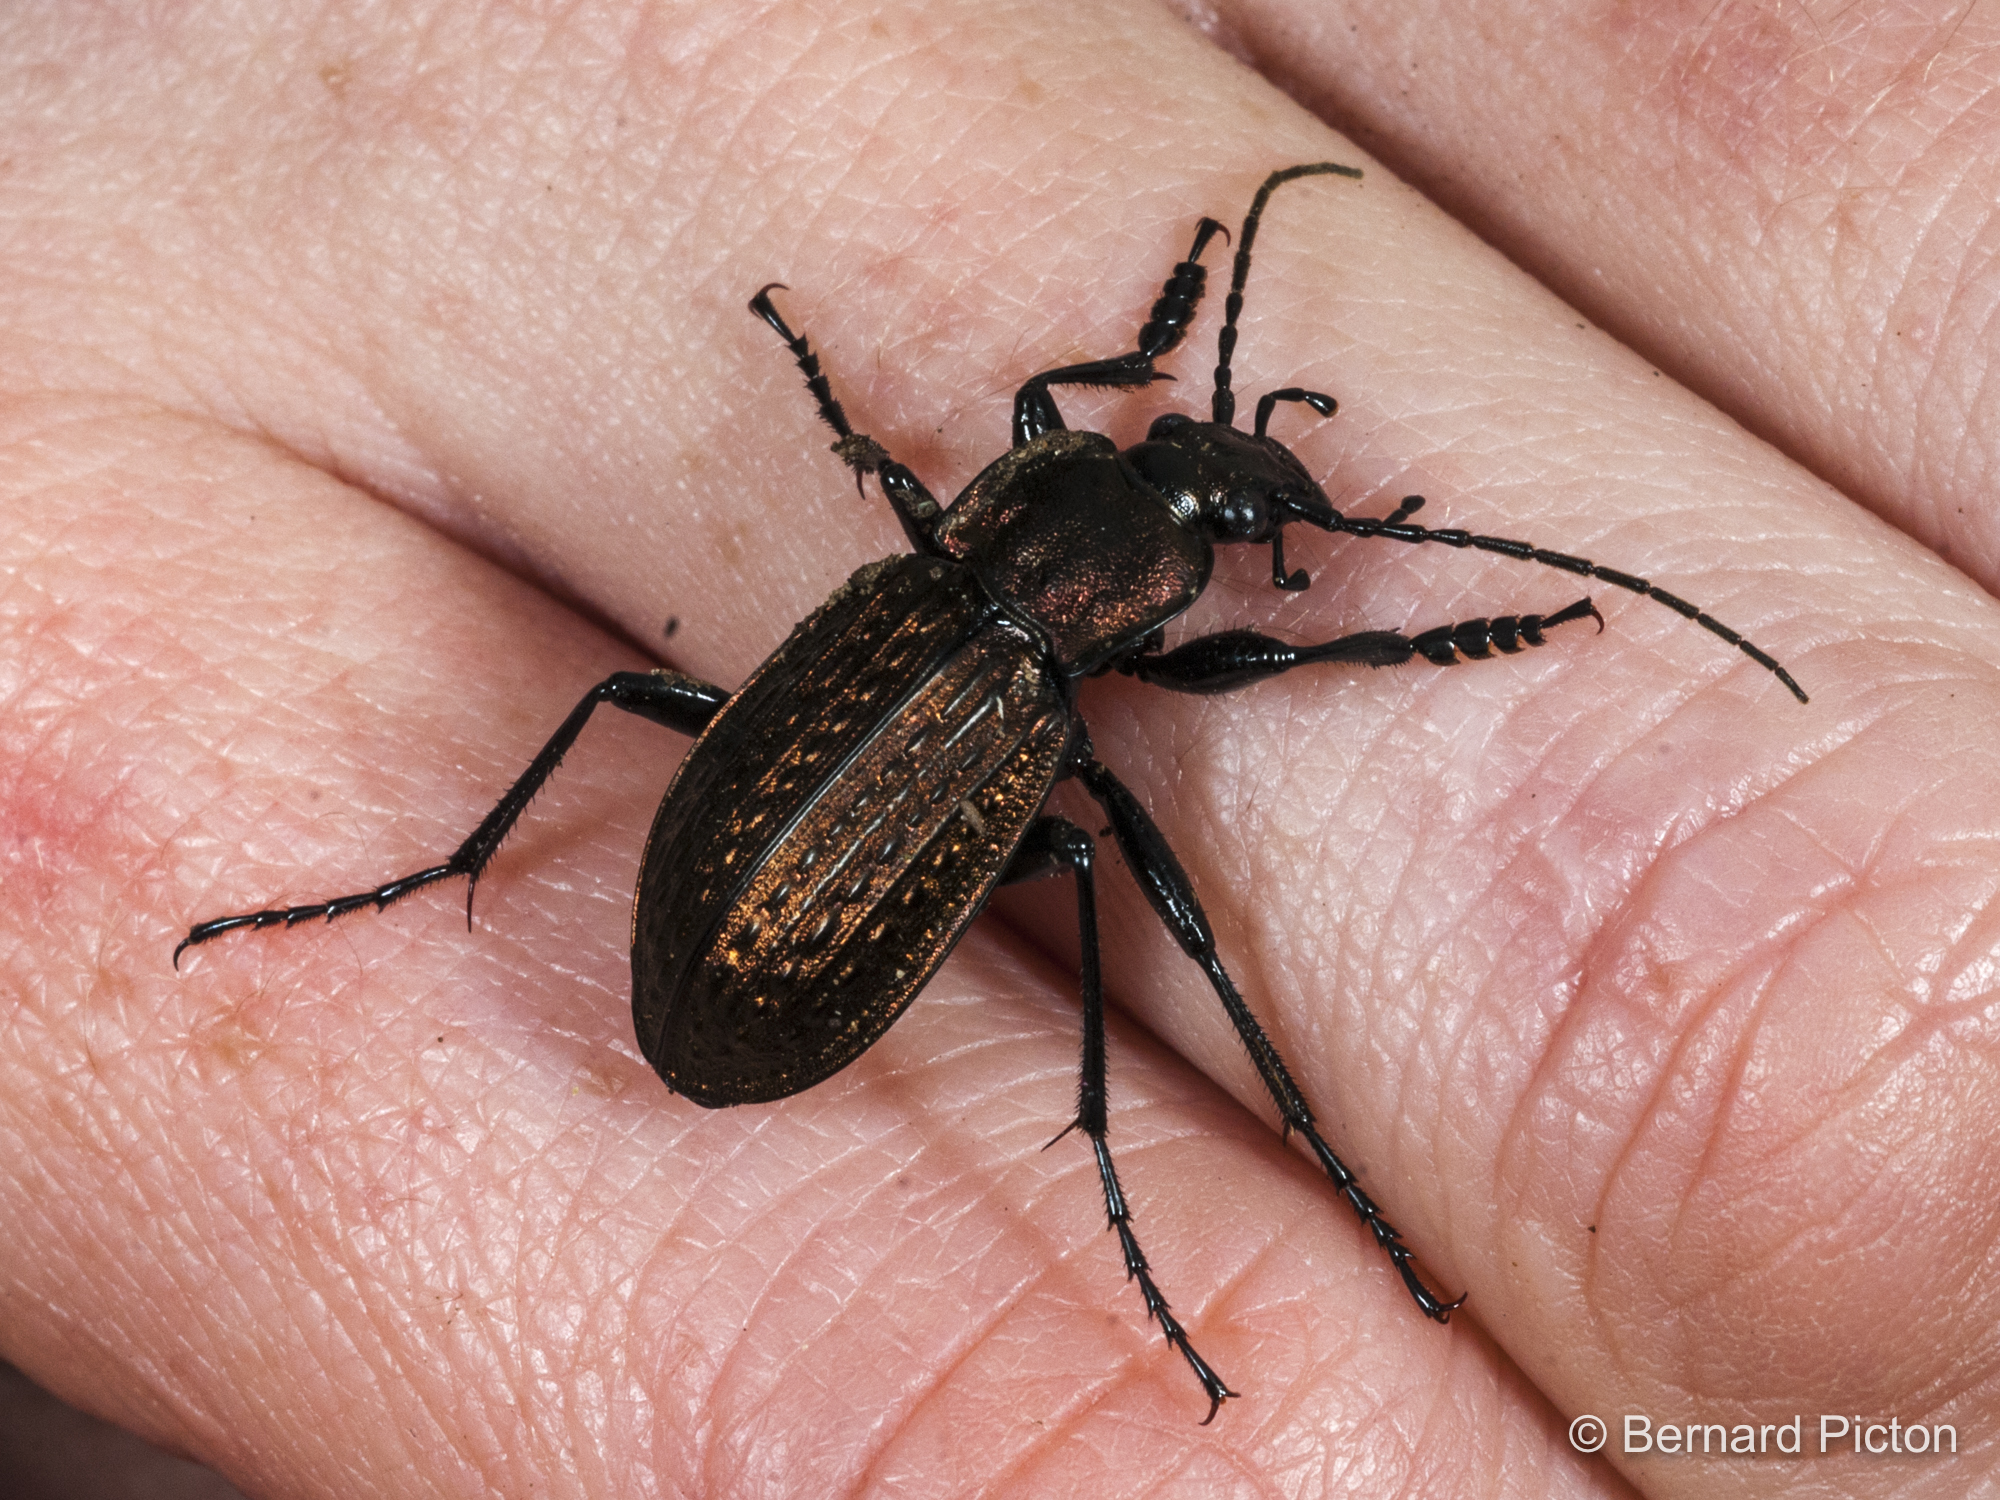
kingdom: Animalia
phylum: Arthropoda
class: Insecta
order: Coleoptera
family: Carabidae
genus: Carabus
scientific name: Carabus granulatus
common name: Granulate ground beetle
